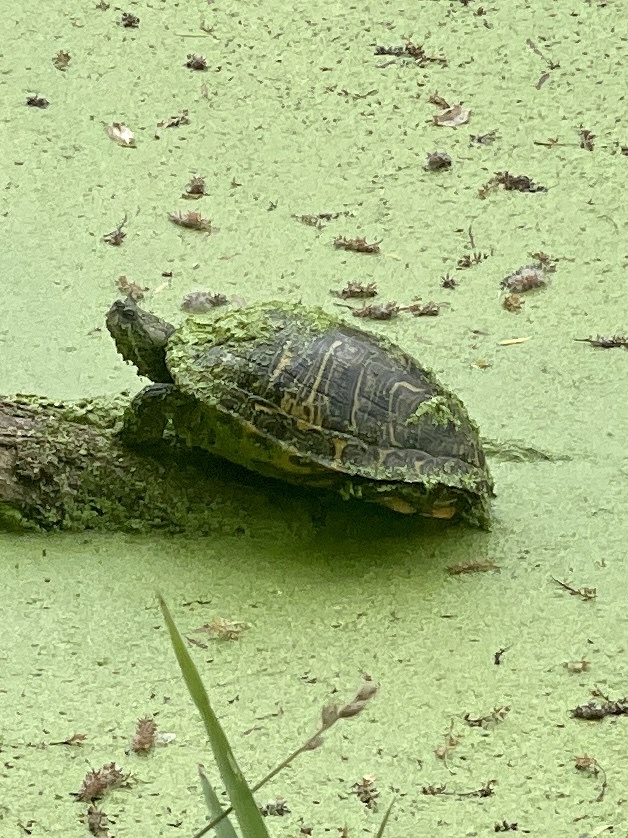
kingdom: Animalia
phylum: Chordata
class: Testudines
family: Emydidae
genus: Trachemys
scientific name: Trachemys scripta
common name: Slider
